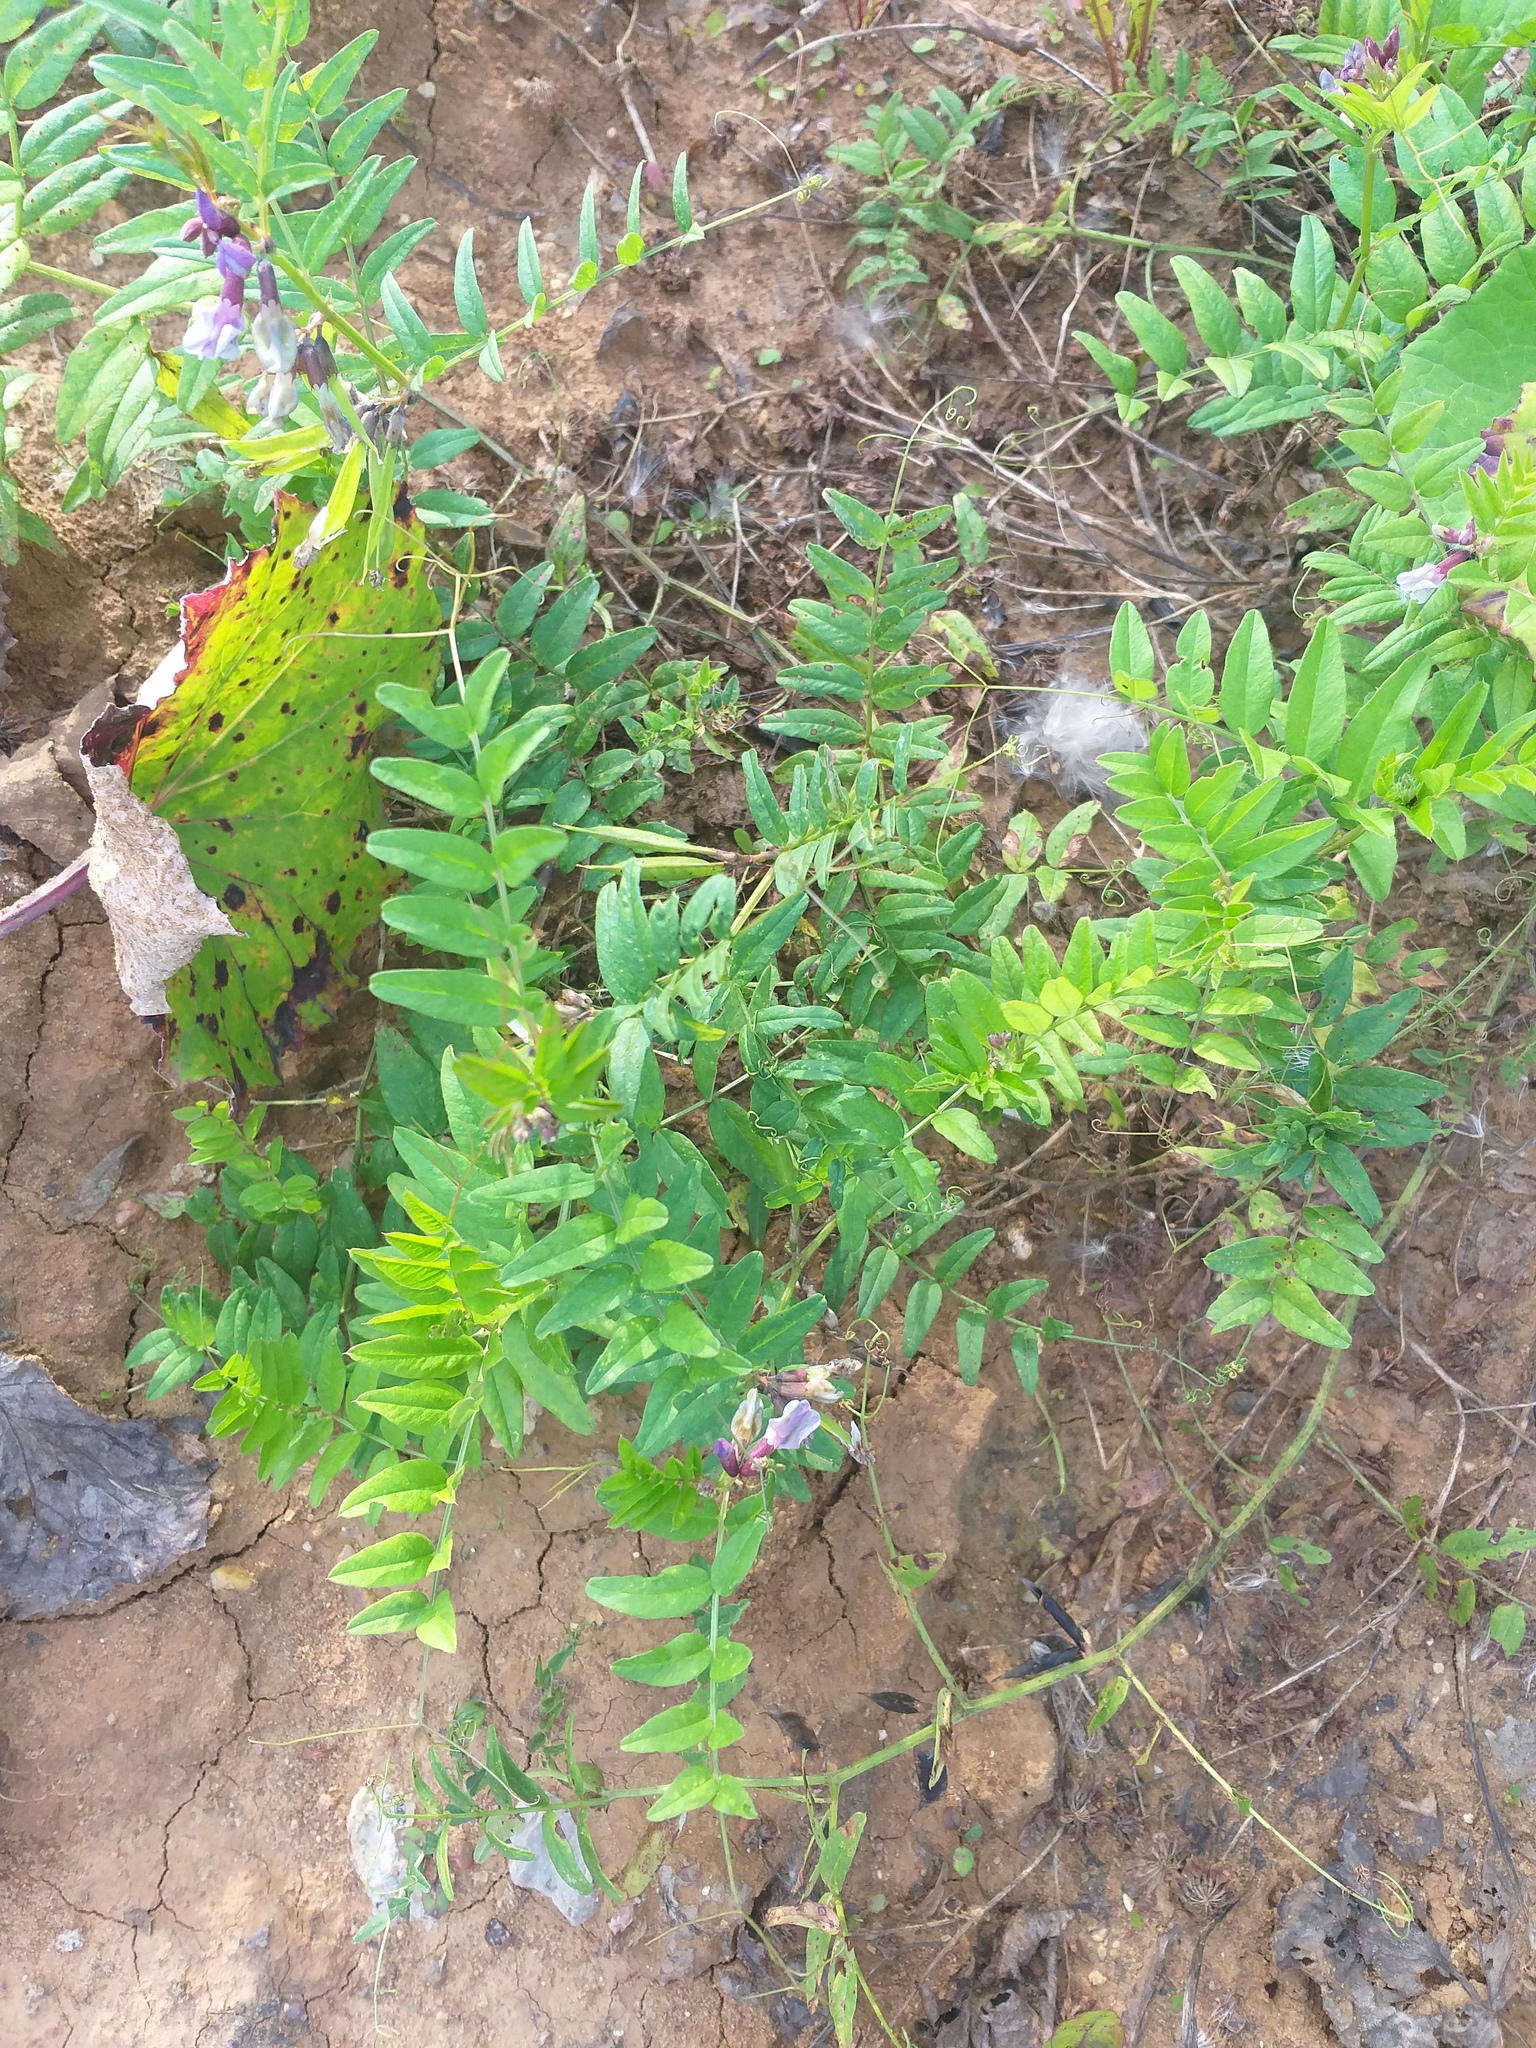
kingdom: Plantae
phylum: Tracheophyta
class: Magnoliopsida
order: Fabales
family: Fabaceae
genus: Vicia
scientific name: Vicia sepium
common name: Bush vetch
